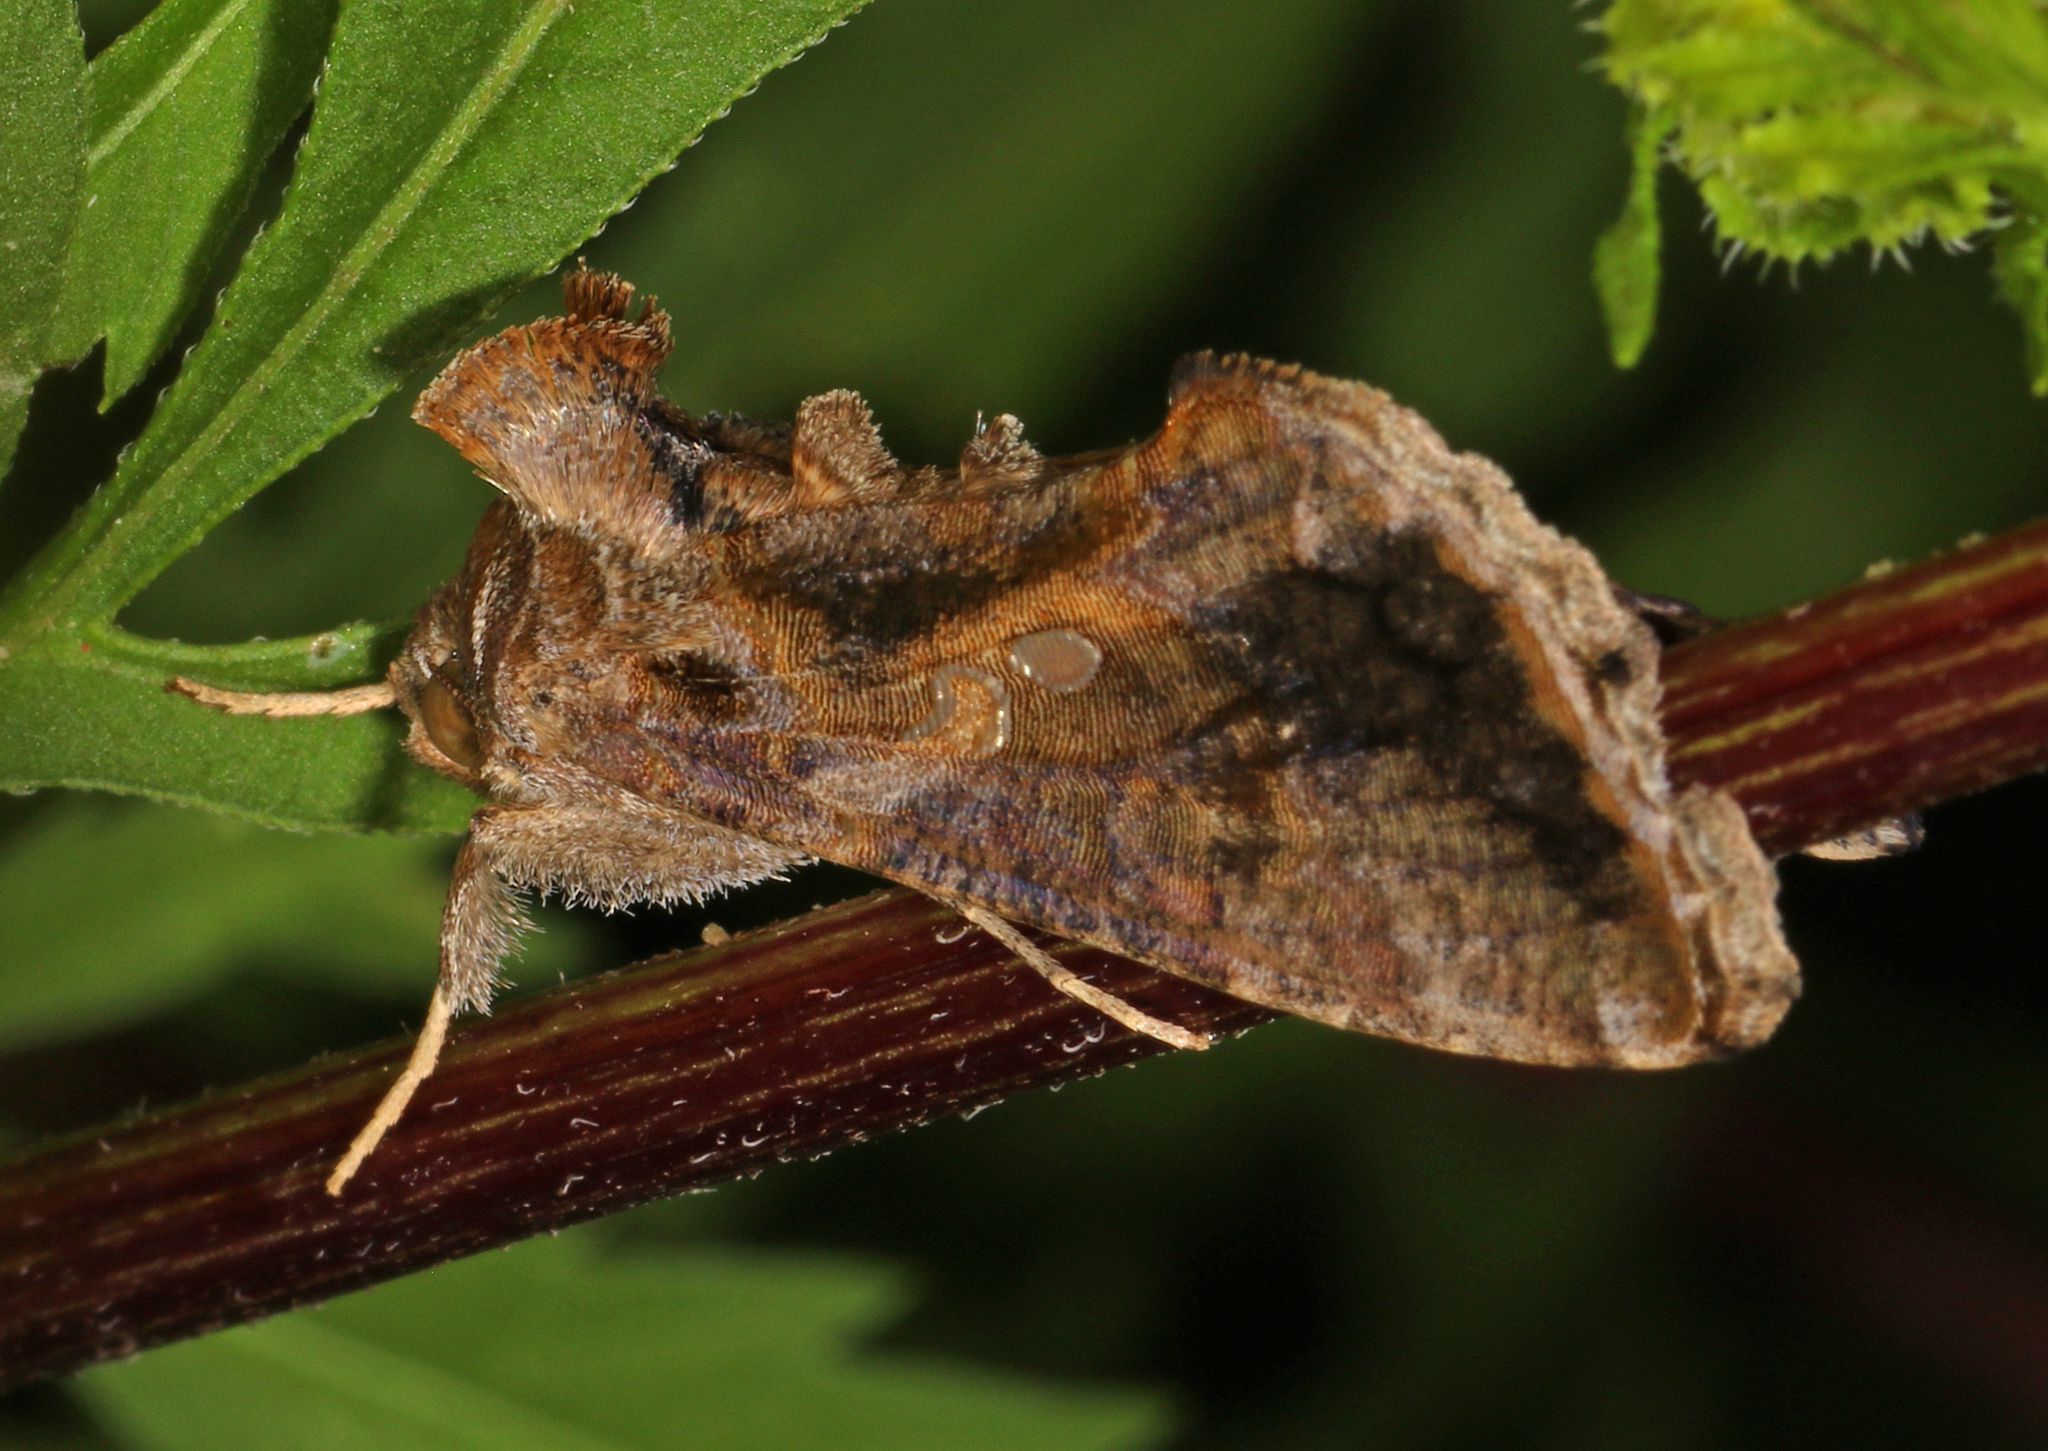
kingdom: Animalia
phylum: Arthropoda
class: Insecta
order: Lepidoptera
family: Noctuidae
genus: Chrysodeixis
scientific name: Chrysodeixis includens
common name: Cutworm moth
